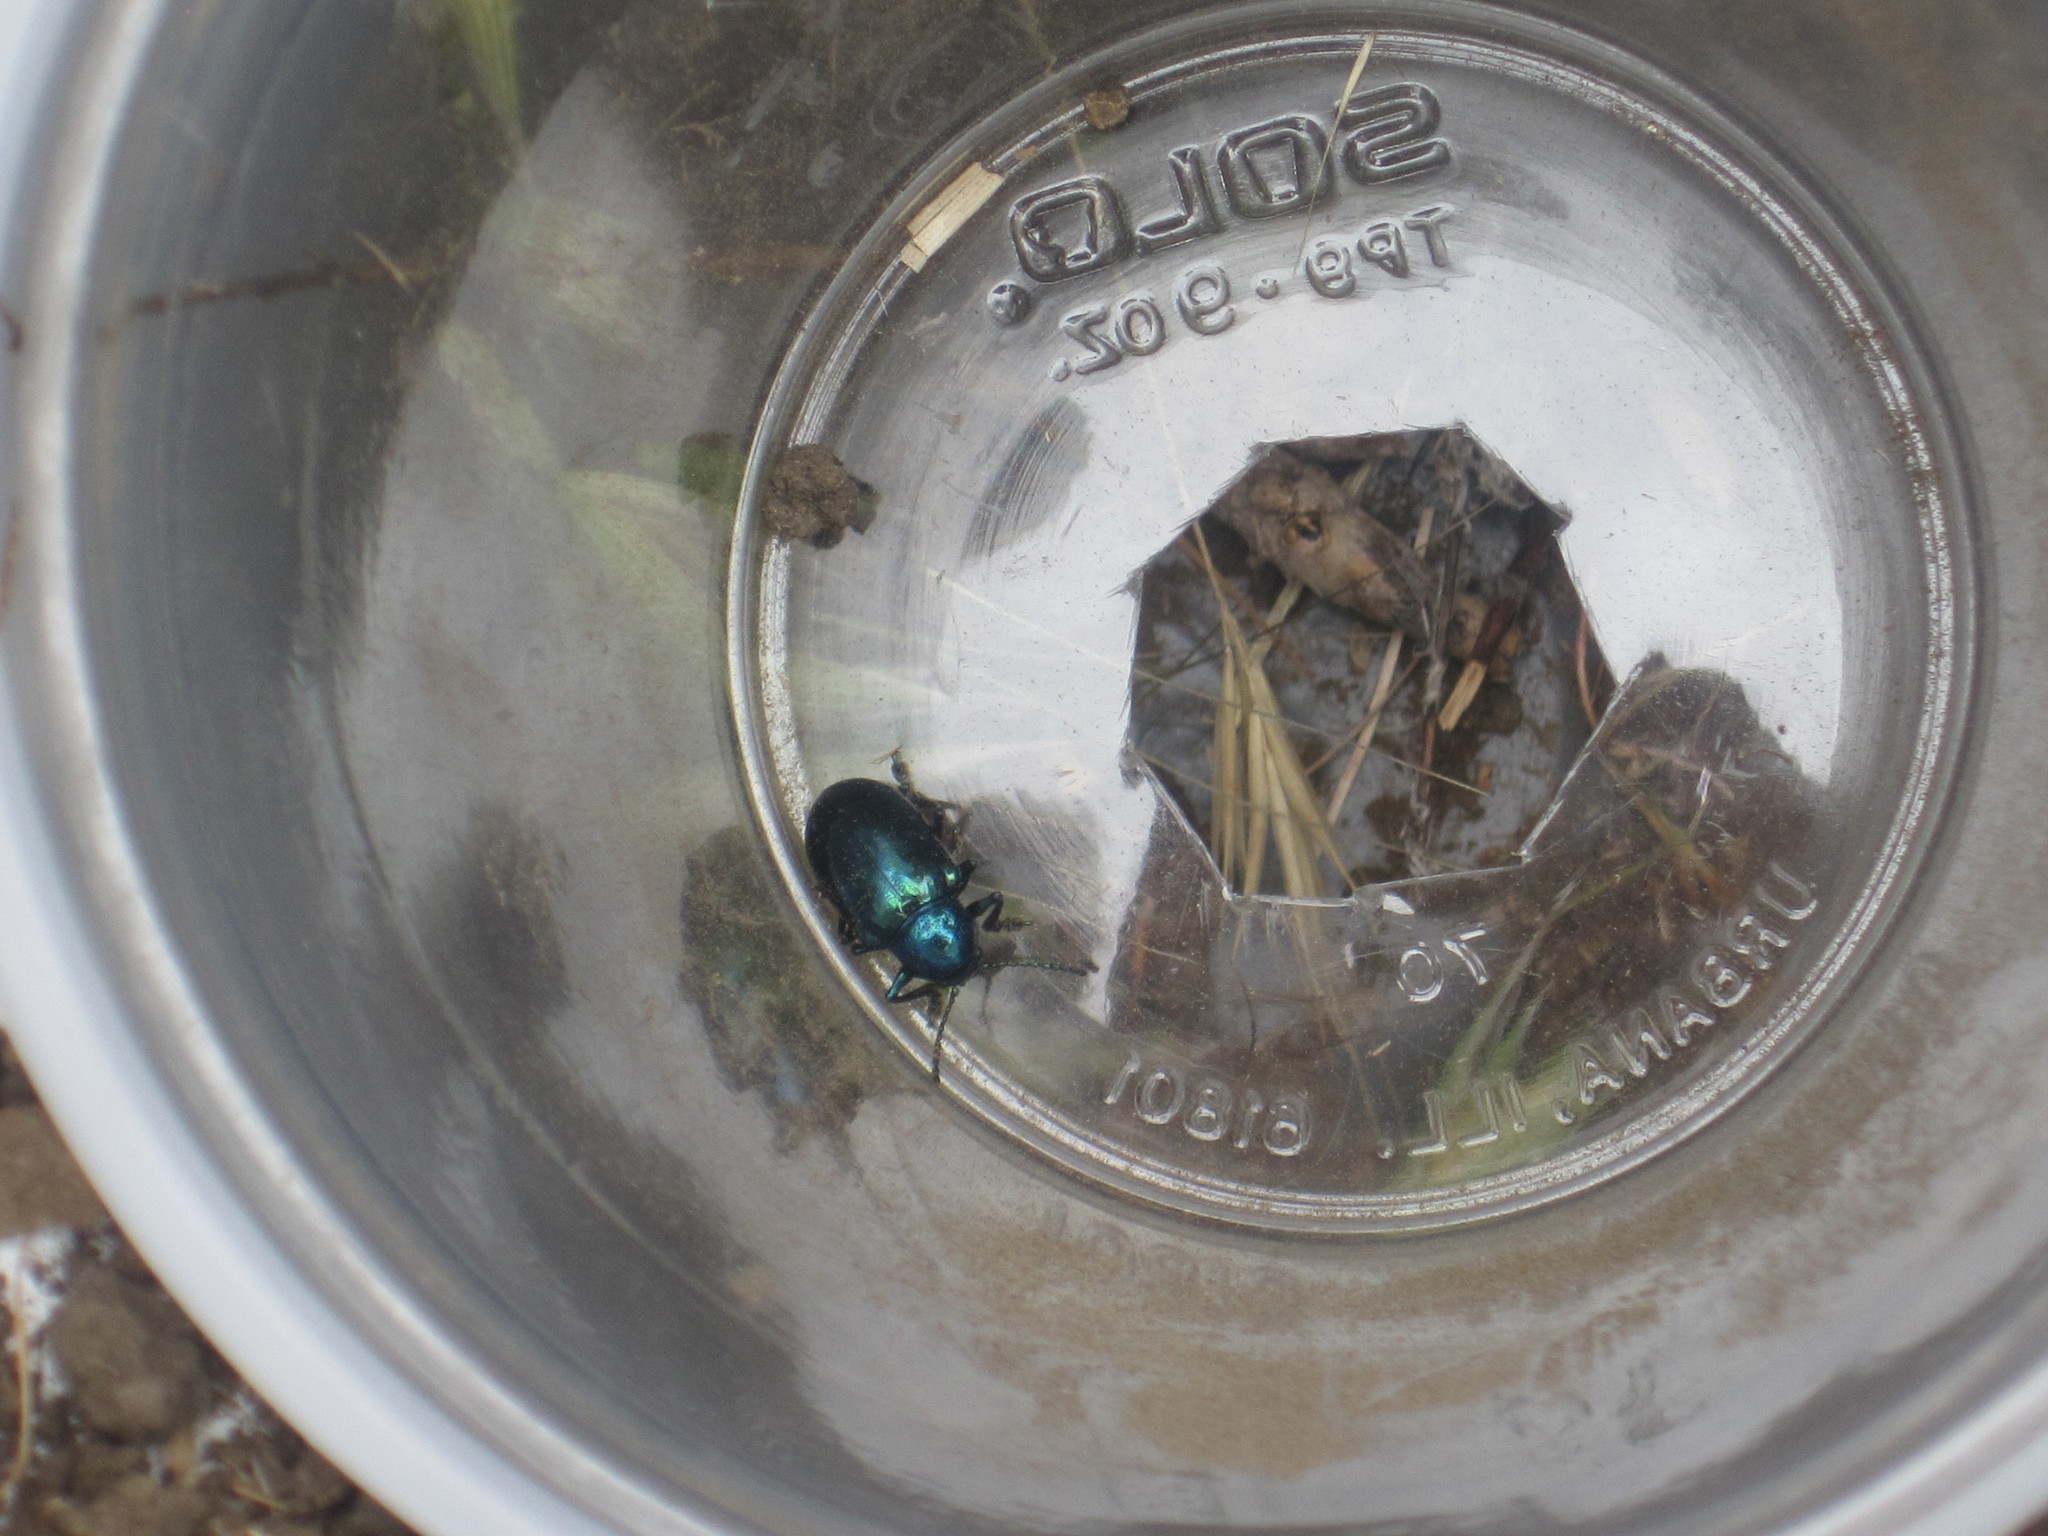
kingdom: Animalia
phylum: Arthropoda
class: Insecta
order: Coleoptera
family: Chrysomelidae
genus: Chrysochus
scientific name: Chrysochus cobaltinus
